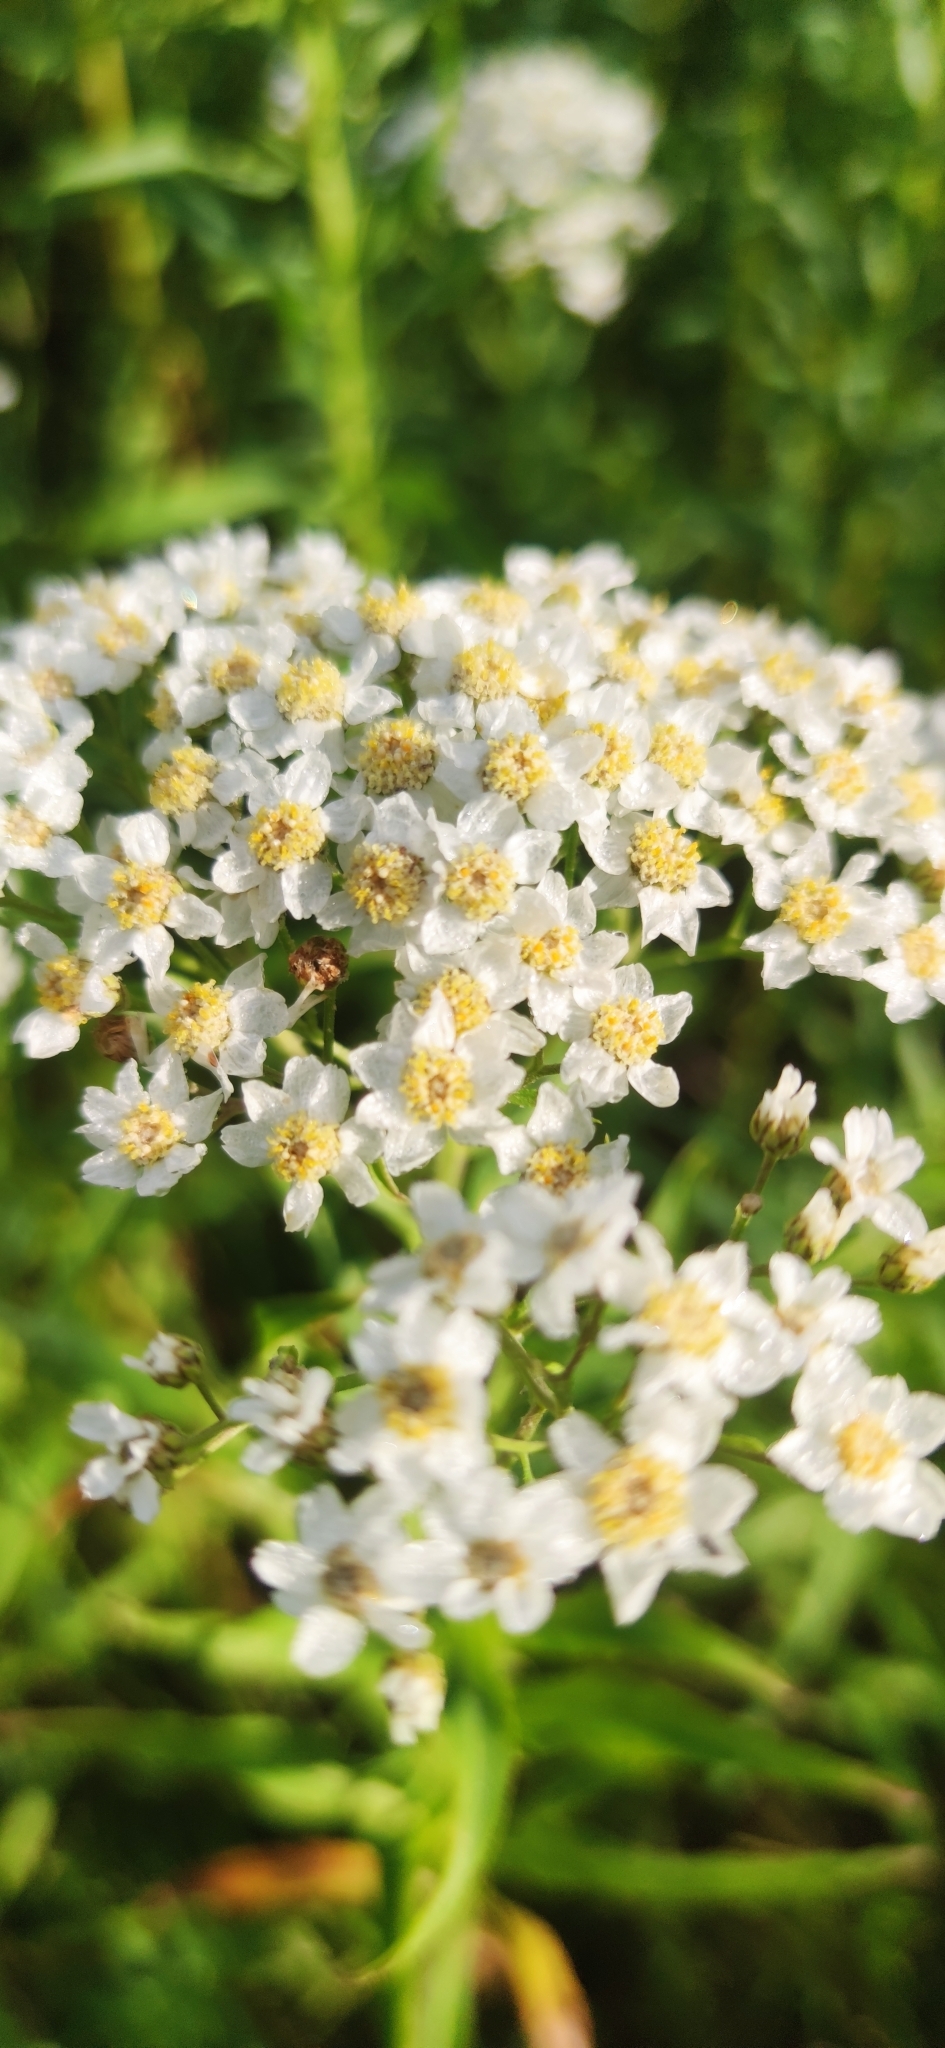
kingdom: Plantae
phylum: Tracheophyta
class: Magnoliopsida
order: Asterales
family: Asteraceae
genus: Achillea
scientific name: Achillea salicifolia
